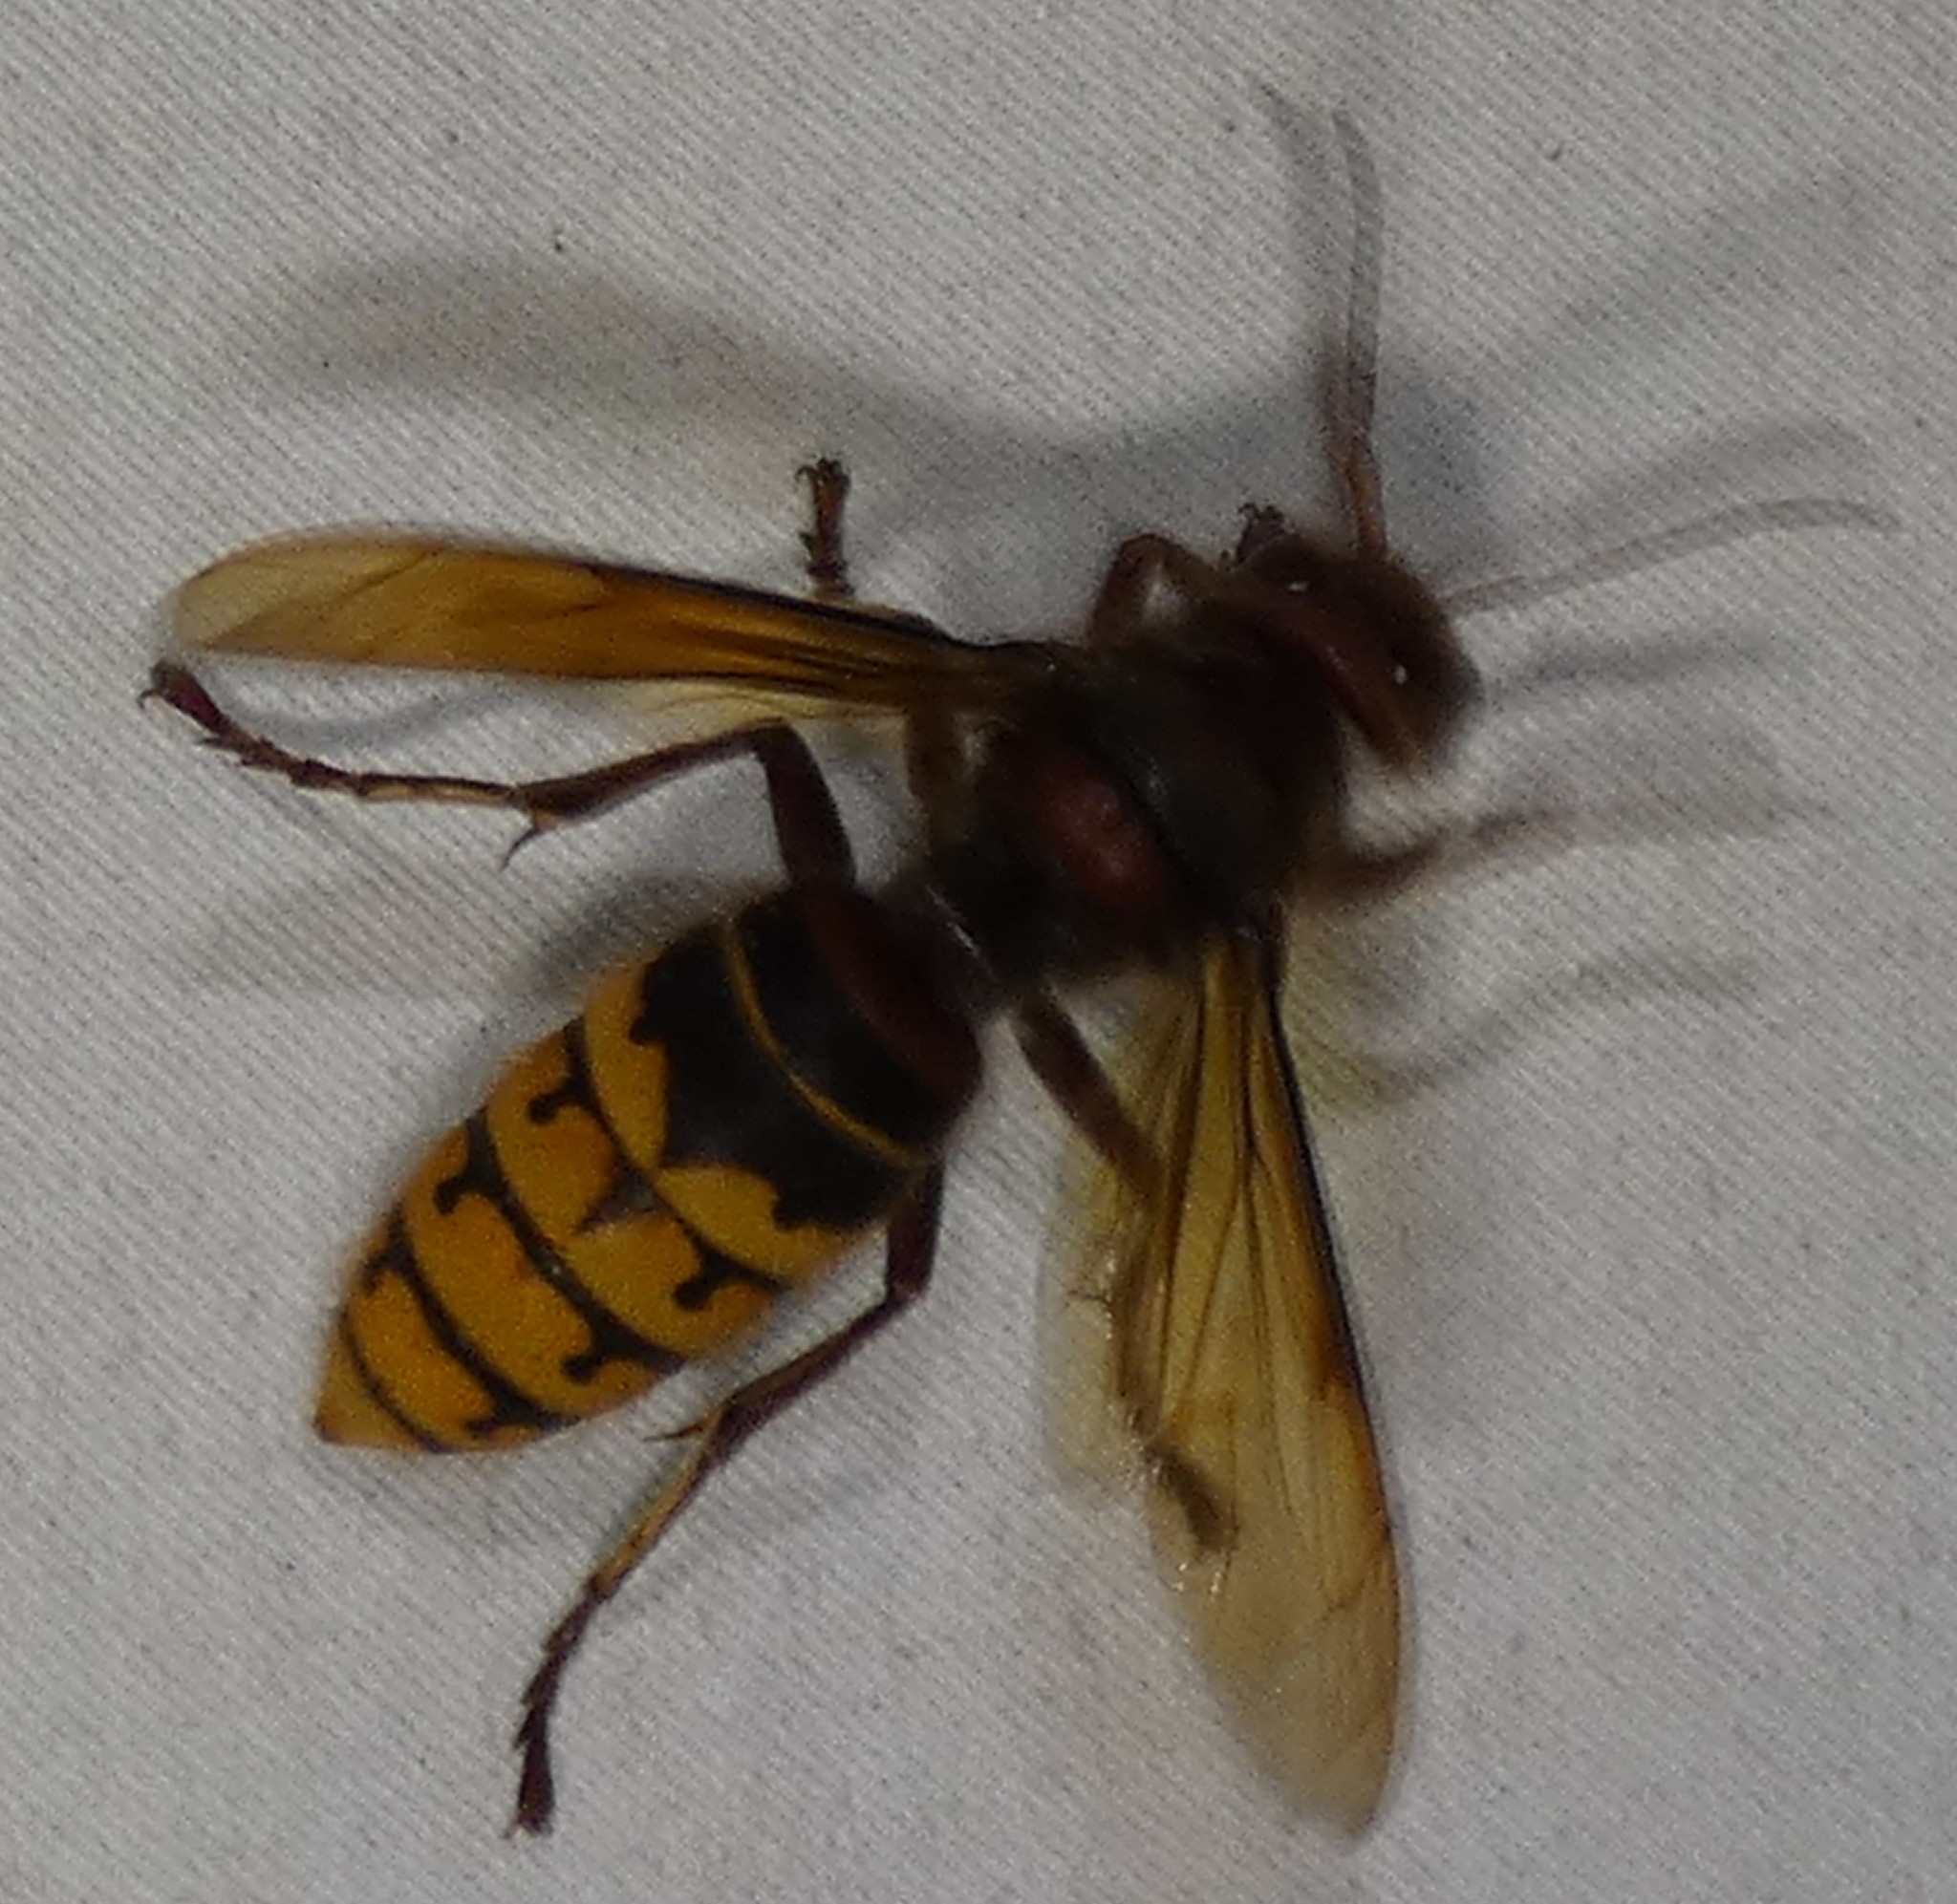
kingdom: Animalia
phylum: Arthropoda
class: Insecta
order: Hymenoptera
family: Vespidae
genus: Vespa
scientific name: Vespa crabro
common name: Hornet
